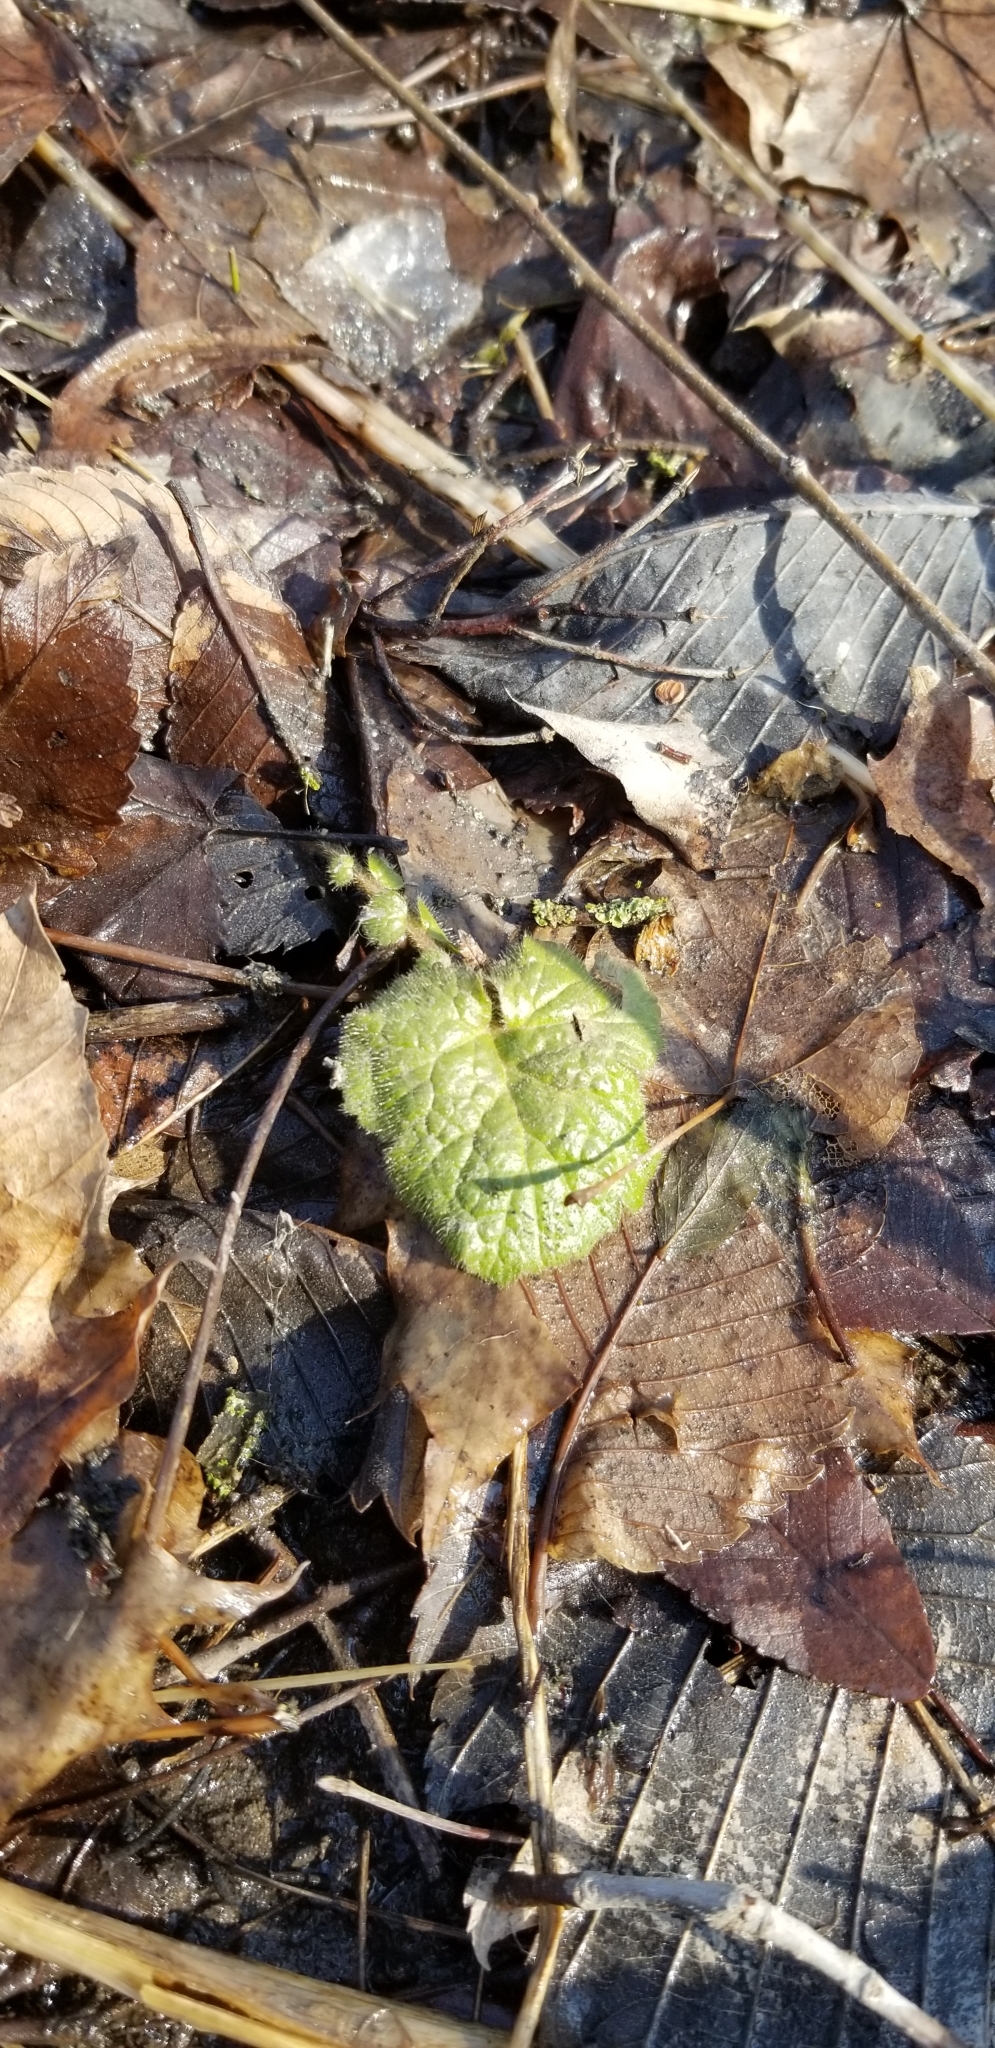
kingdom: Plantae
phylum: Tracheophyta
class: Magnoliopsida
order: Rosales
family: Rosaceae
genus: Geum
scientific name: Geum urbanum
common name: Wood avens
